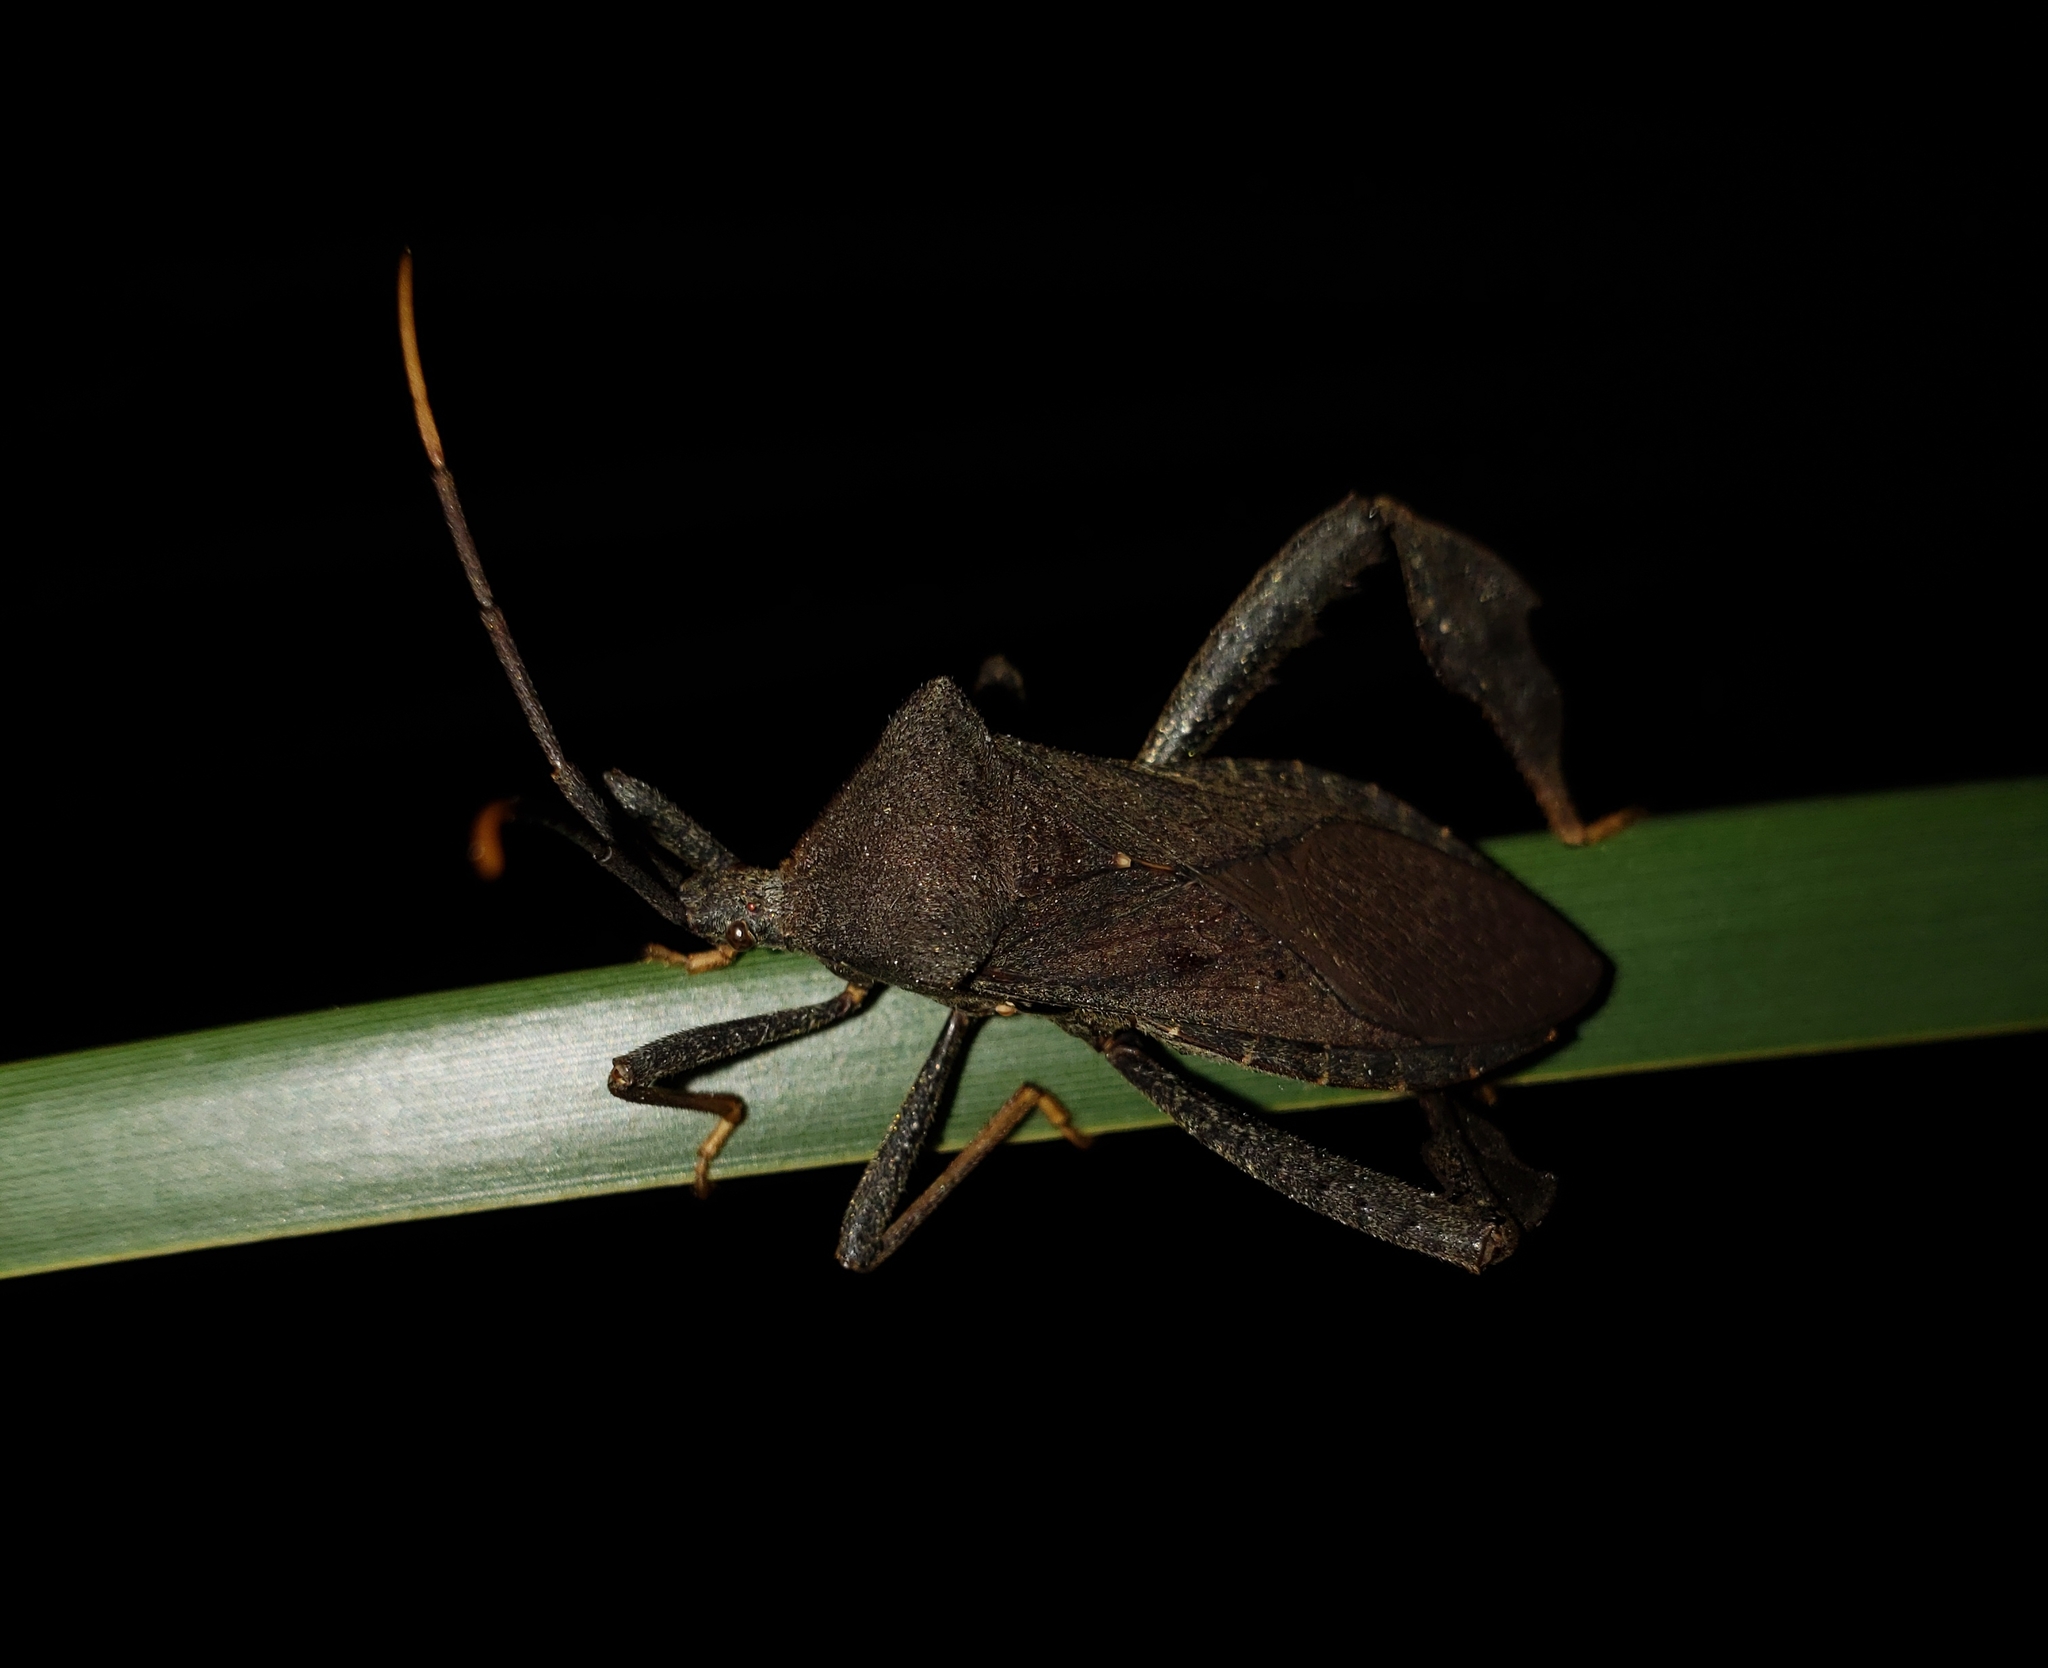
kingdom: Animalia
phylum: Arthropoda
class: Insecta
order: Hemiptera
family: Coreidae
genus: Acanthocephala
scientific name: Acanthocephala terminalis
